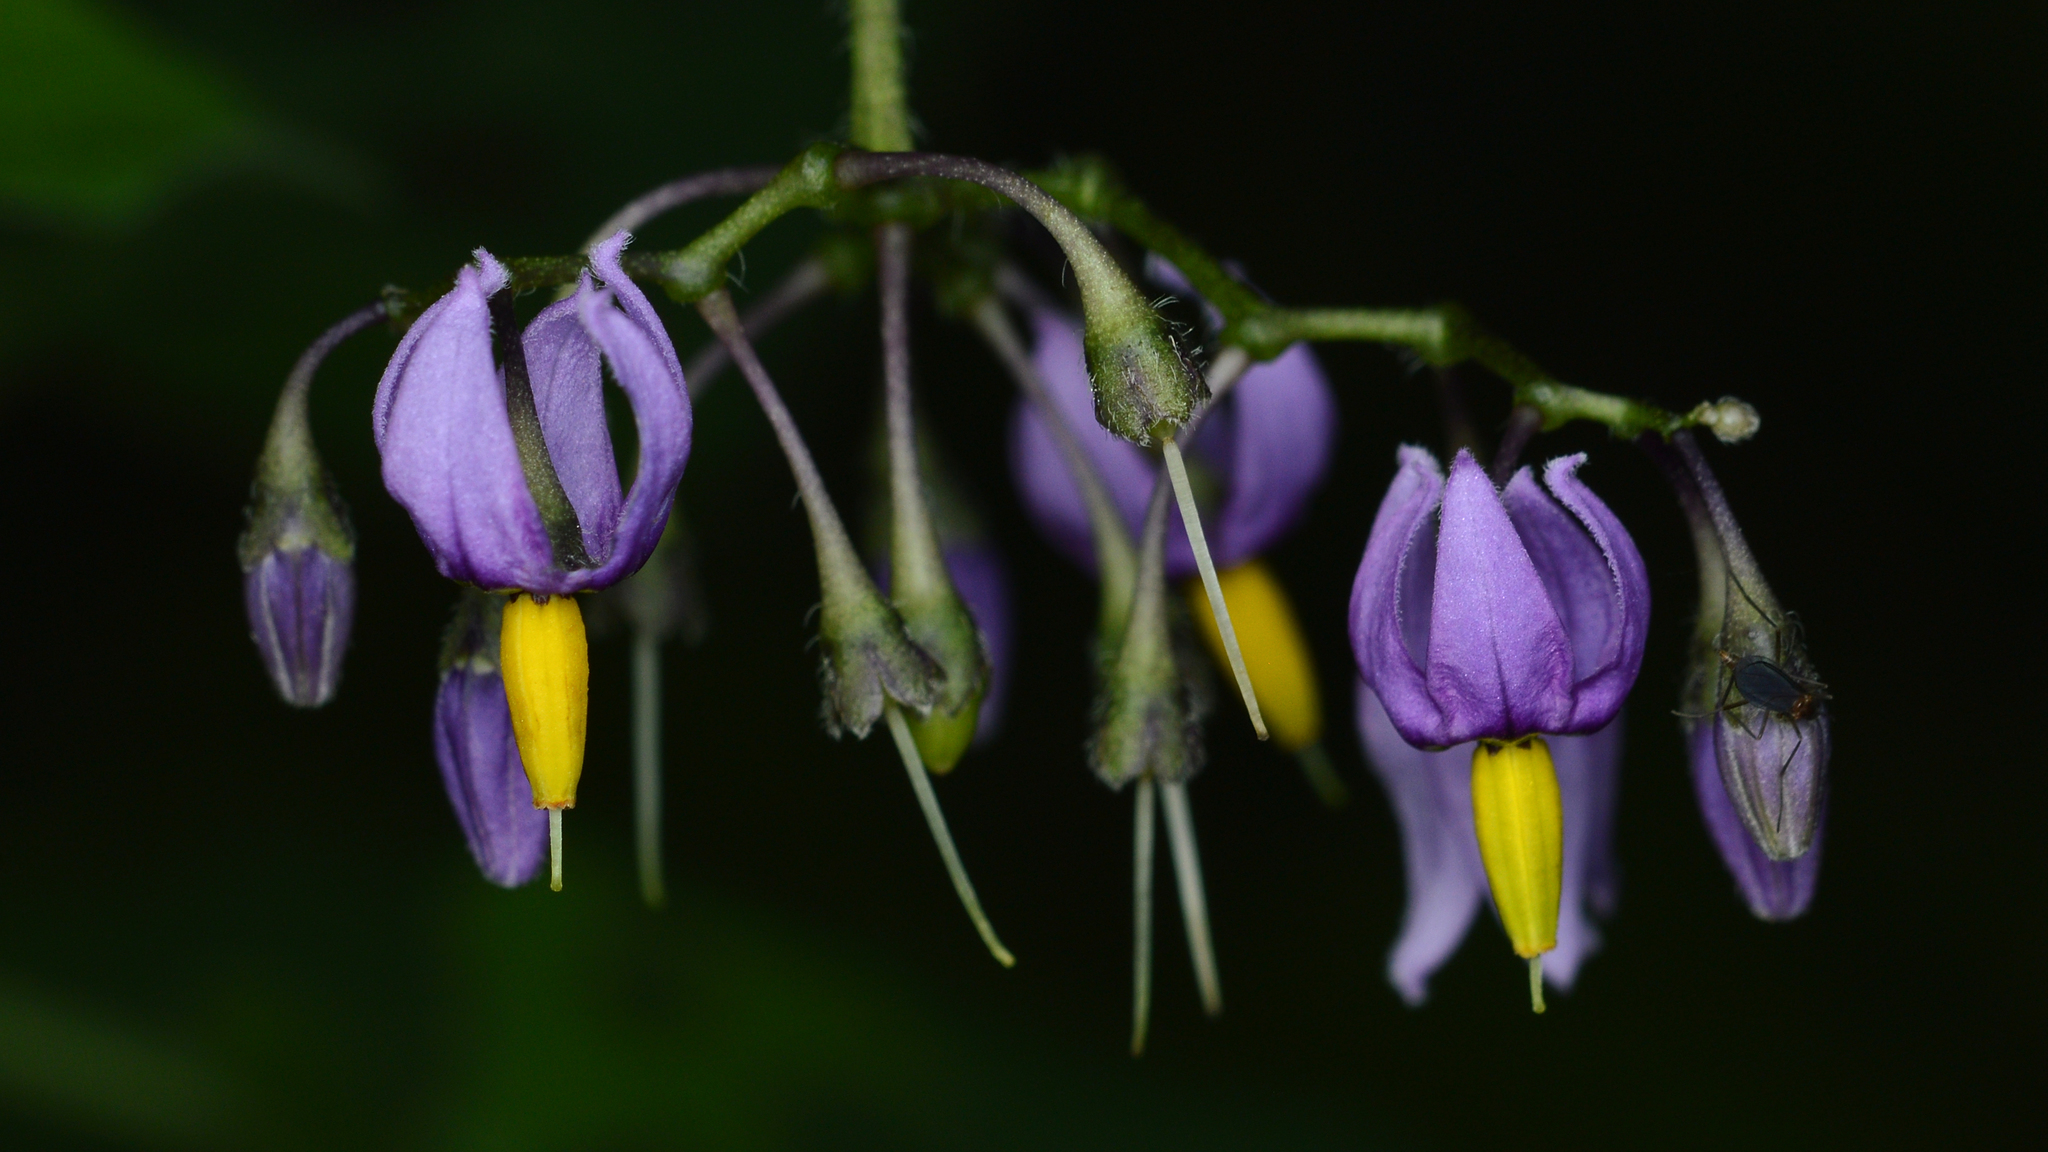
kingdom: Plantae
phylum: Tracheophyta
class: Magnoliopsida
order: Solanales
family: Solanaceae
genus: Solanum
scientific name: Solanum dulcamara
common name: Climbing nightshade
